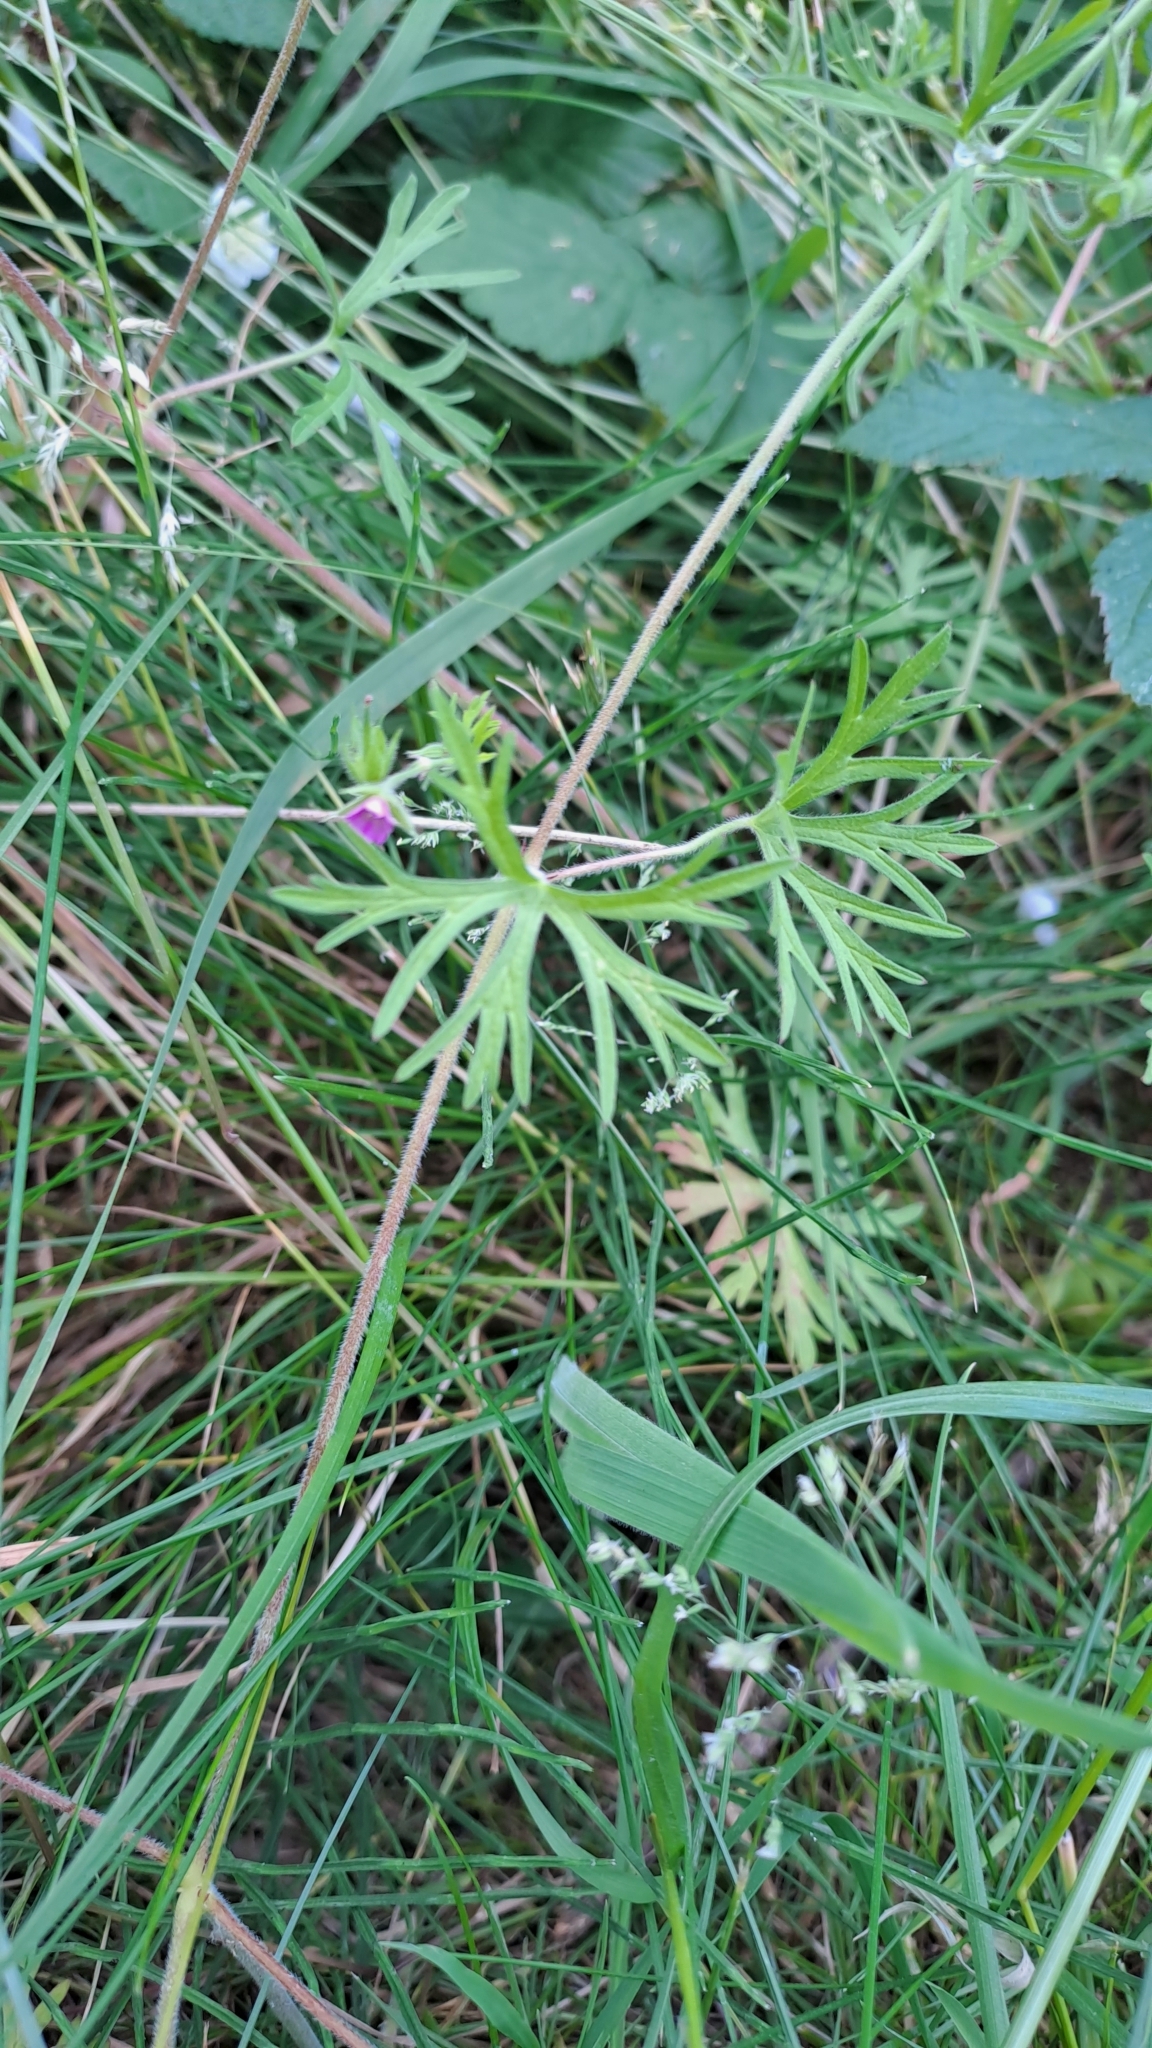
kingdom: Plantae
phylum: Tracheophyta
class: Magnoliopsida
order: Geraniales
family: Geraniaceae
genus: Geranium
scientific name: Geranium dissectum
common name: Cut-leaved crane's-bill
